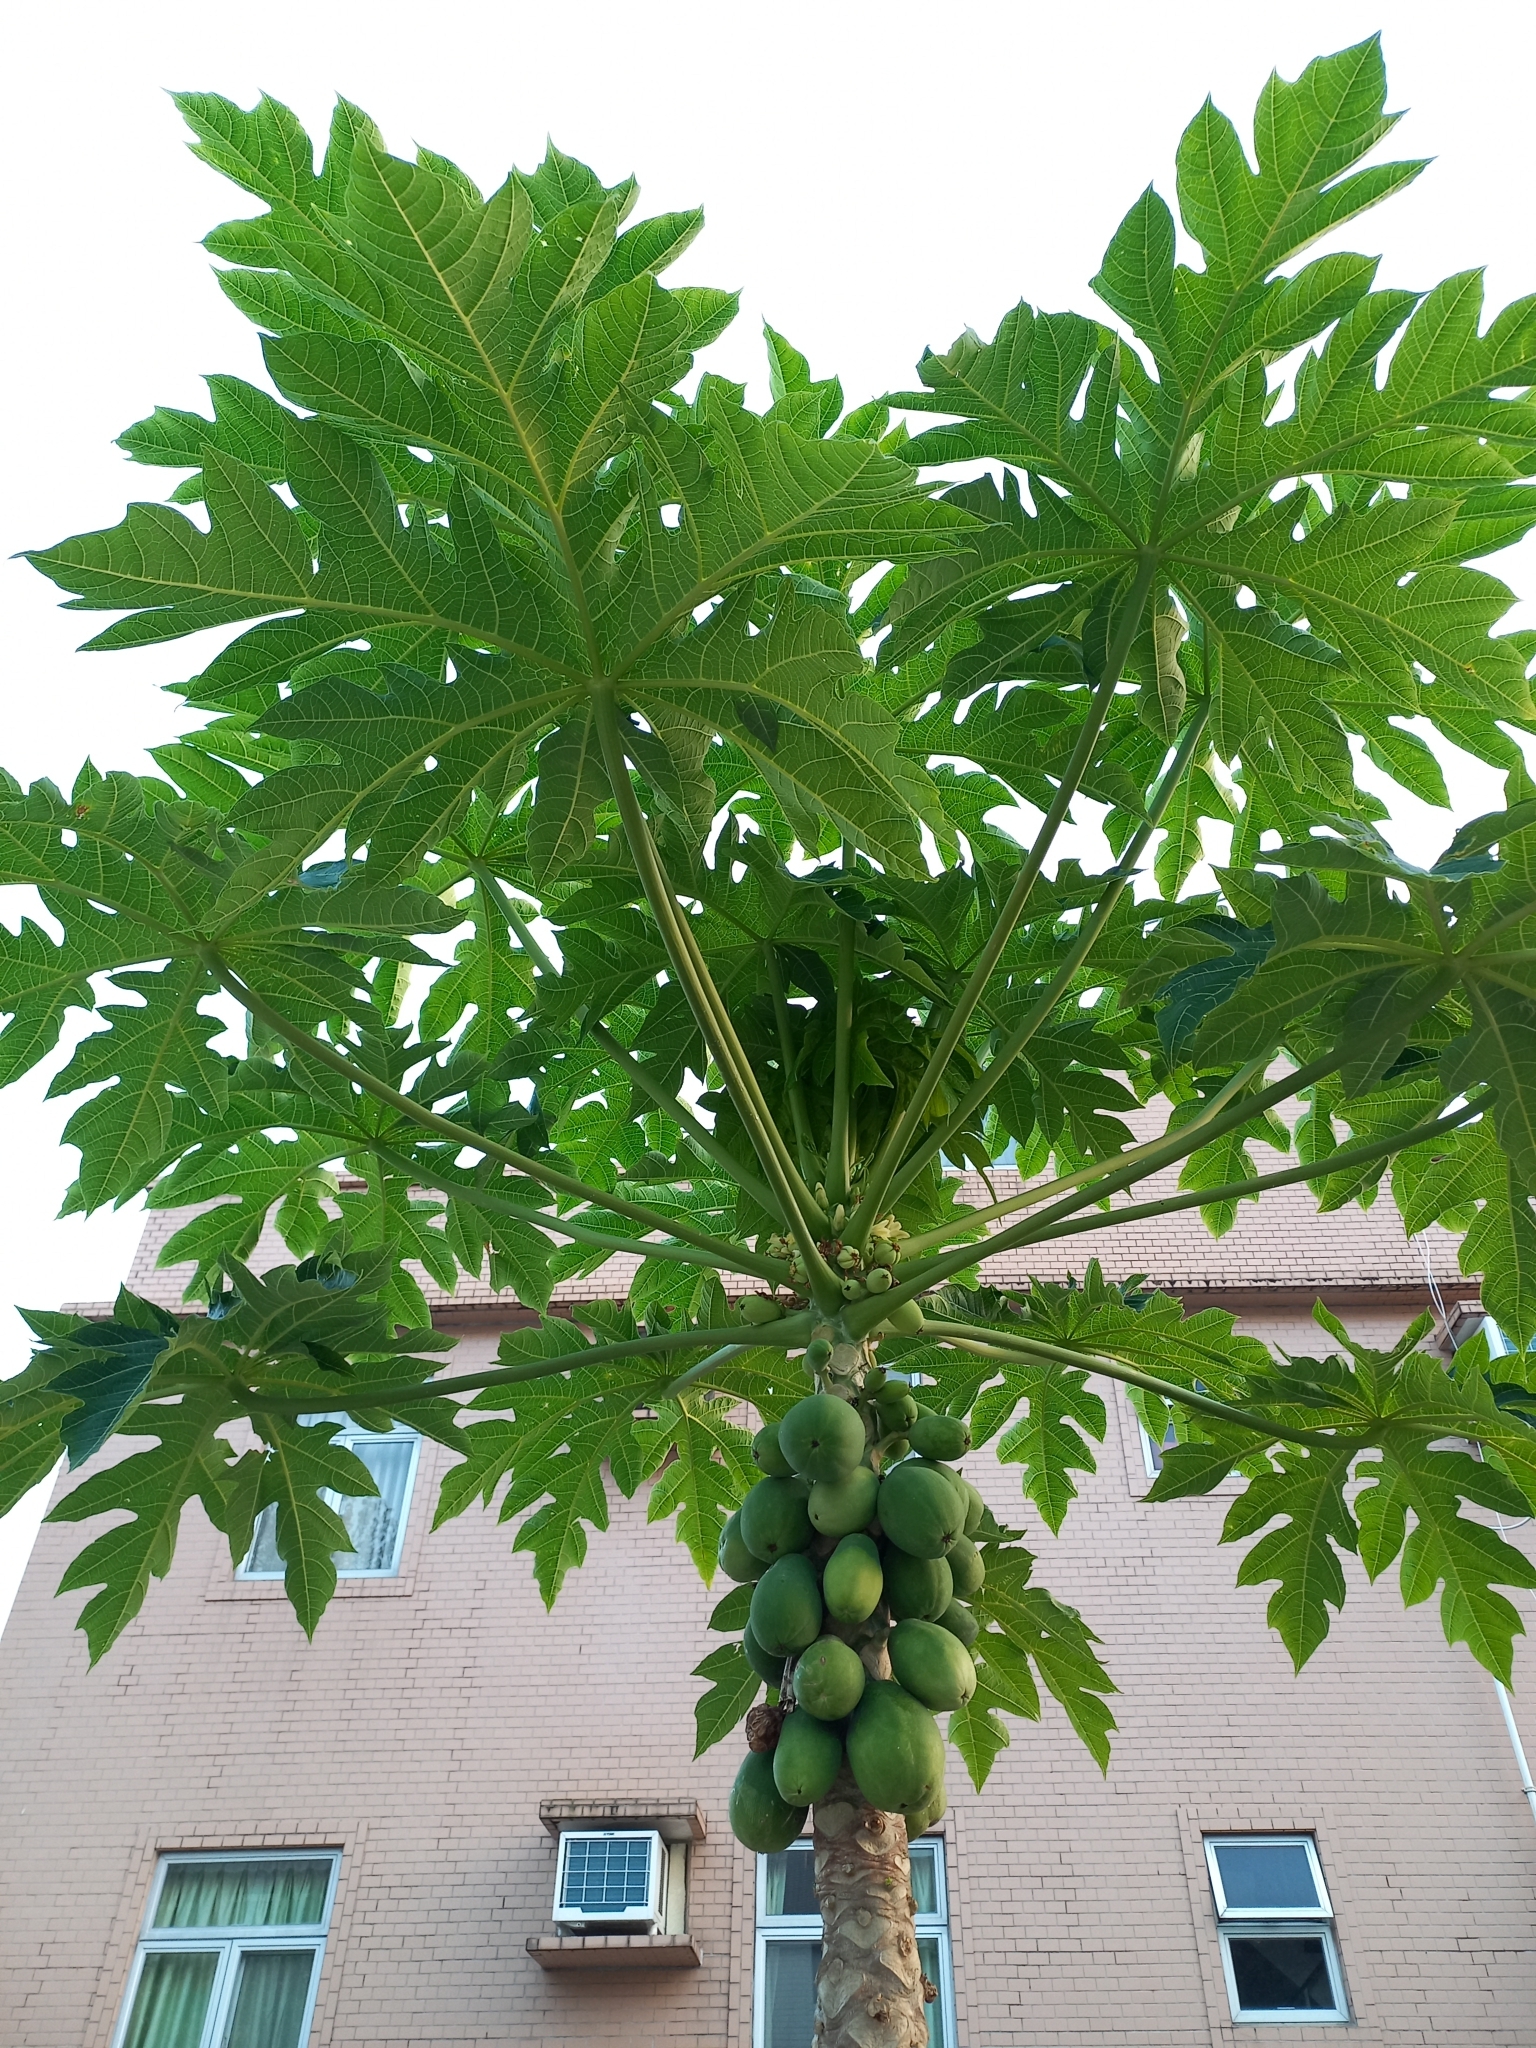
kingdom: Plantae
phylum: Tracheophyta
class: Magnoliopsida
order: Brassicales
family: Caricaceae
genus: Carica
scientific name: Carica papaya
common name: Papaya
